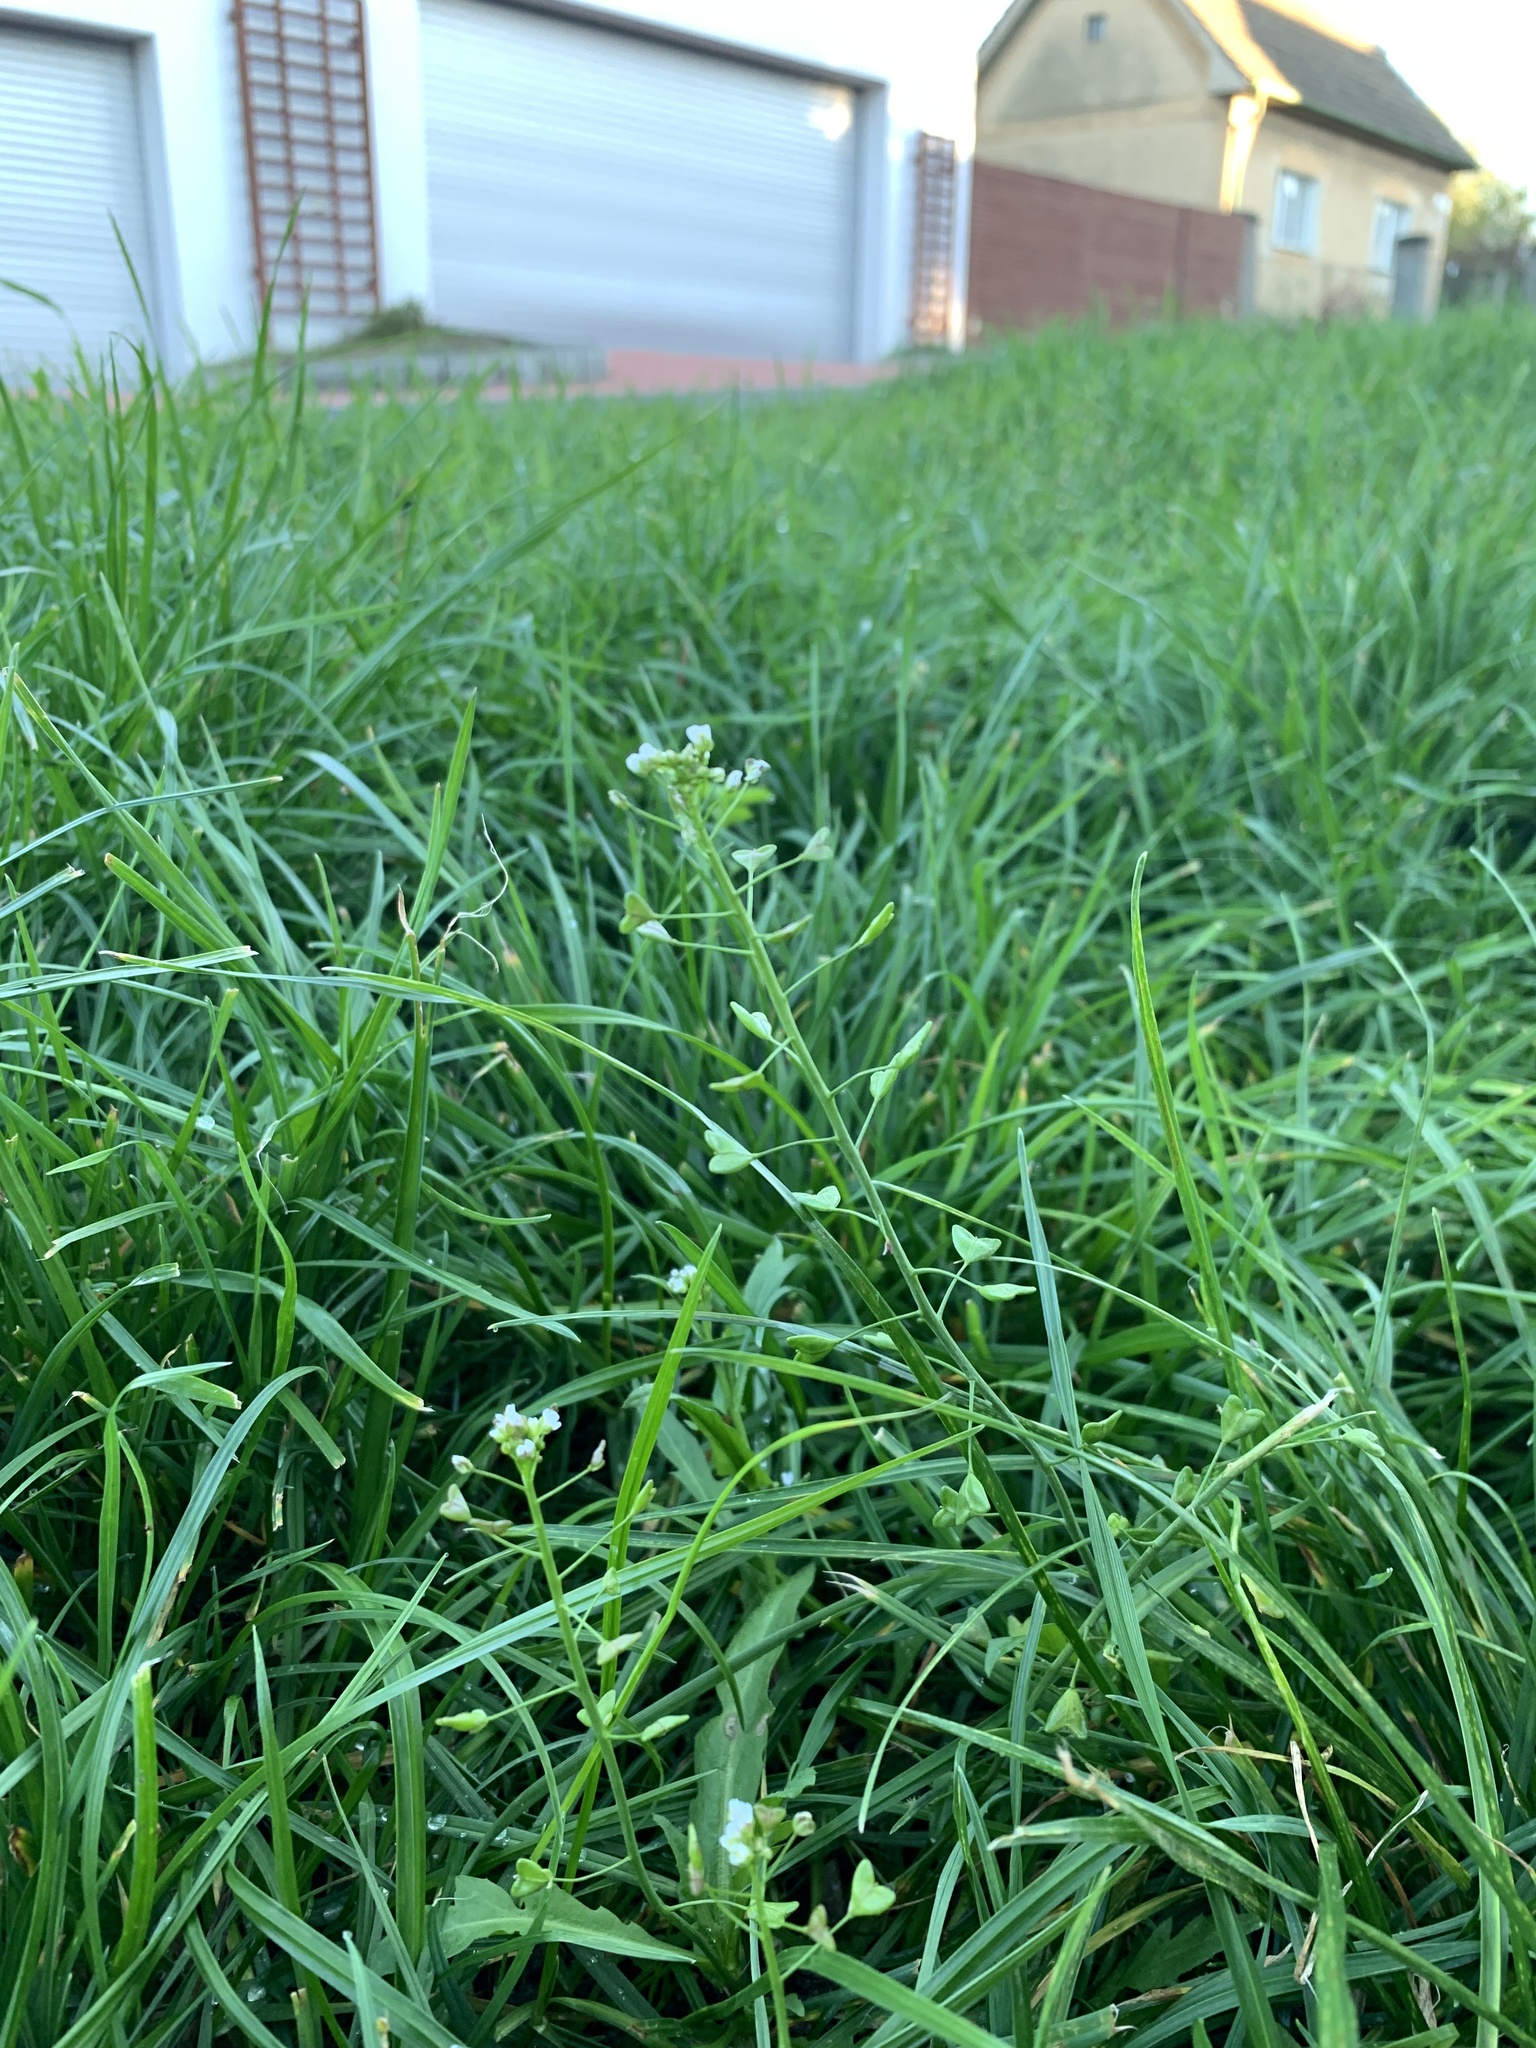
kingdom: Plantae
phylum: Tracheophyta
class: Magnoliopsida
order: Brassicales
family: Brassicaceae
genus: Capsella
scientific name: Capsella bursa-pastoris
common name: Shepherd's purse
